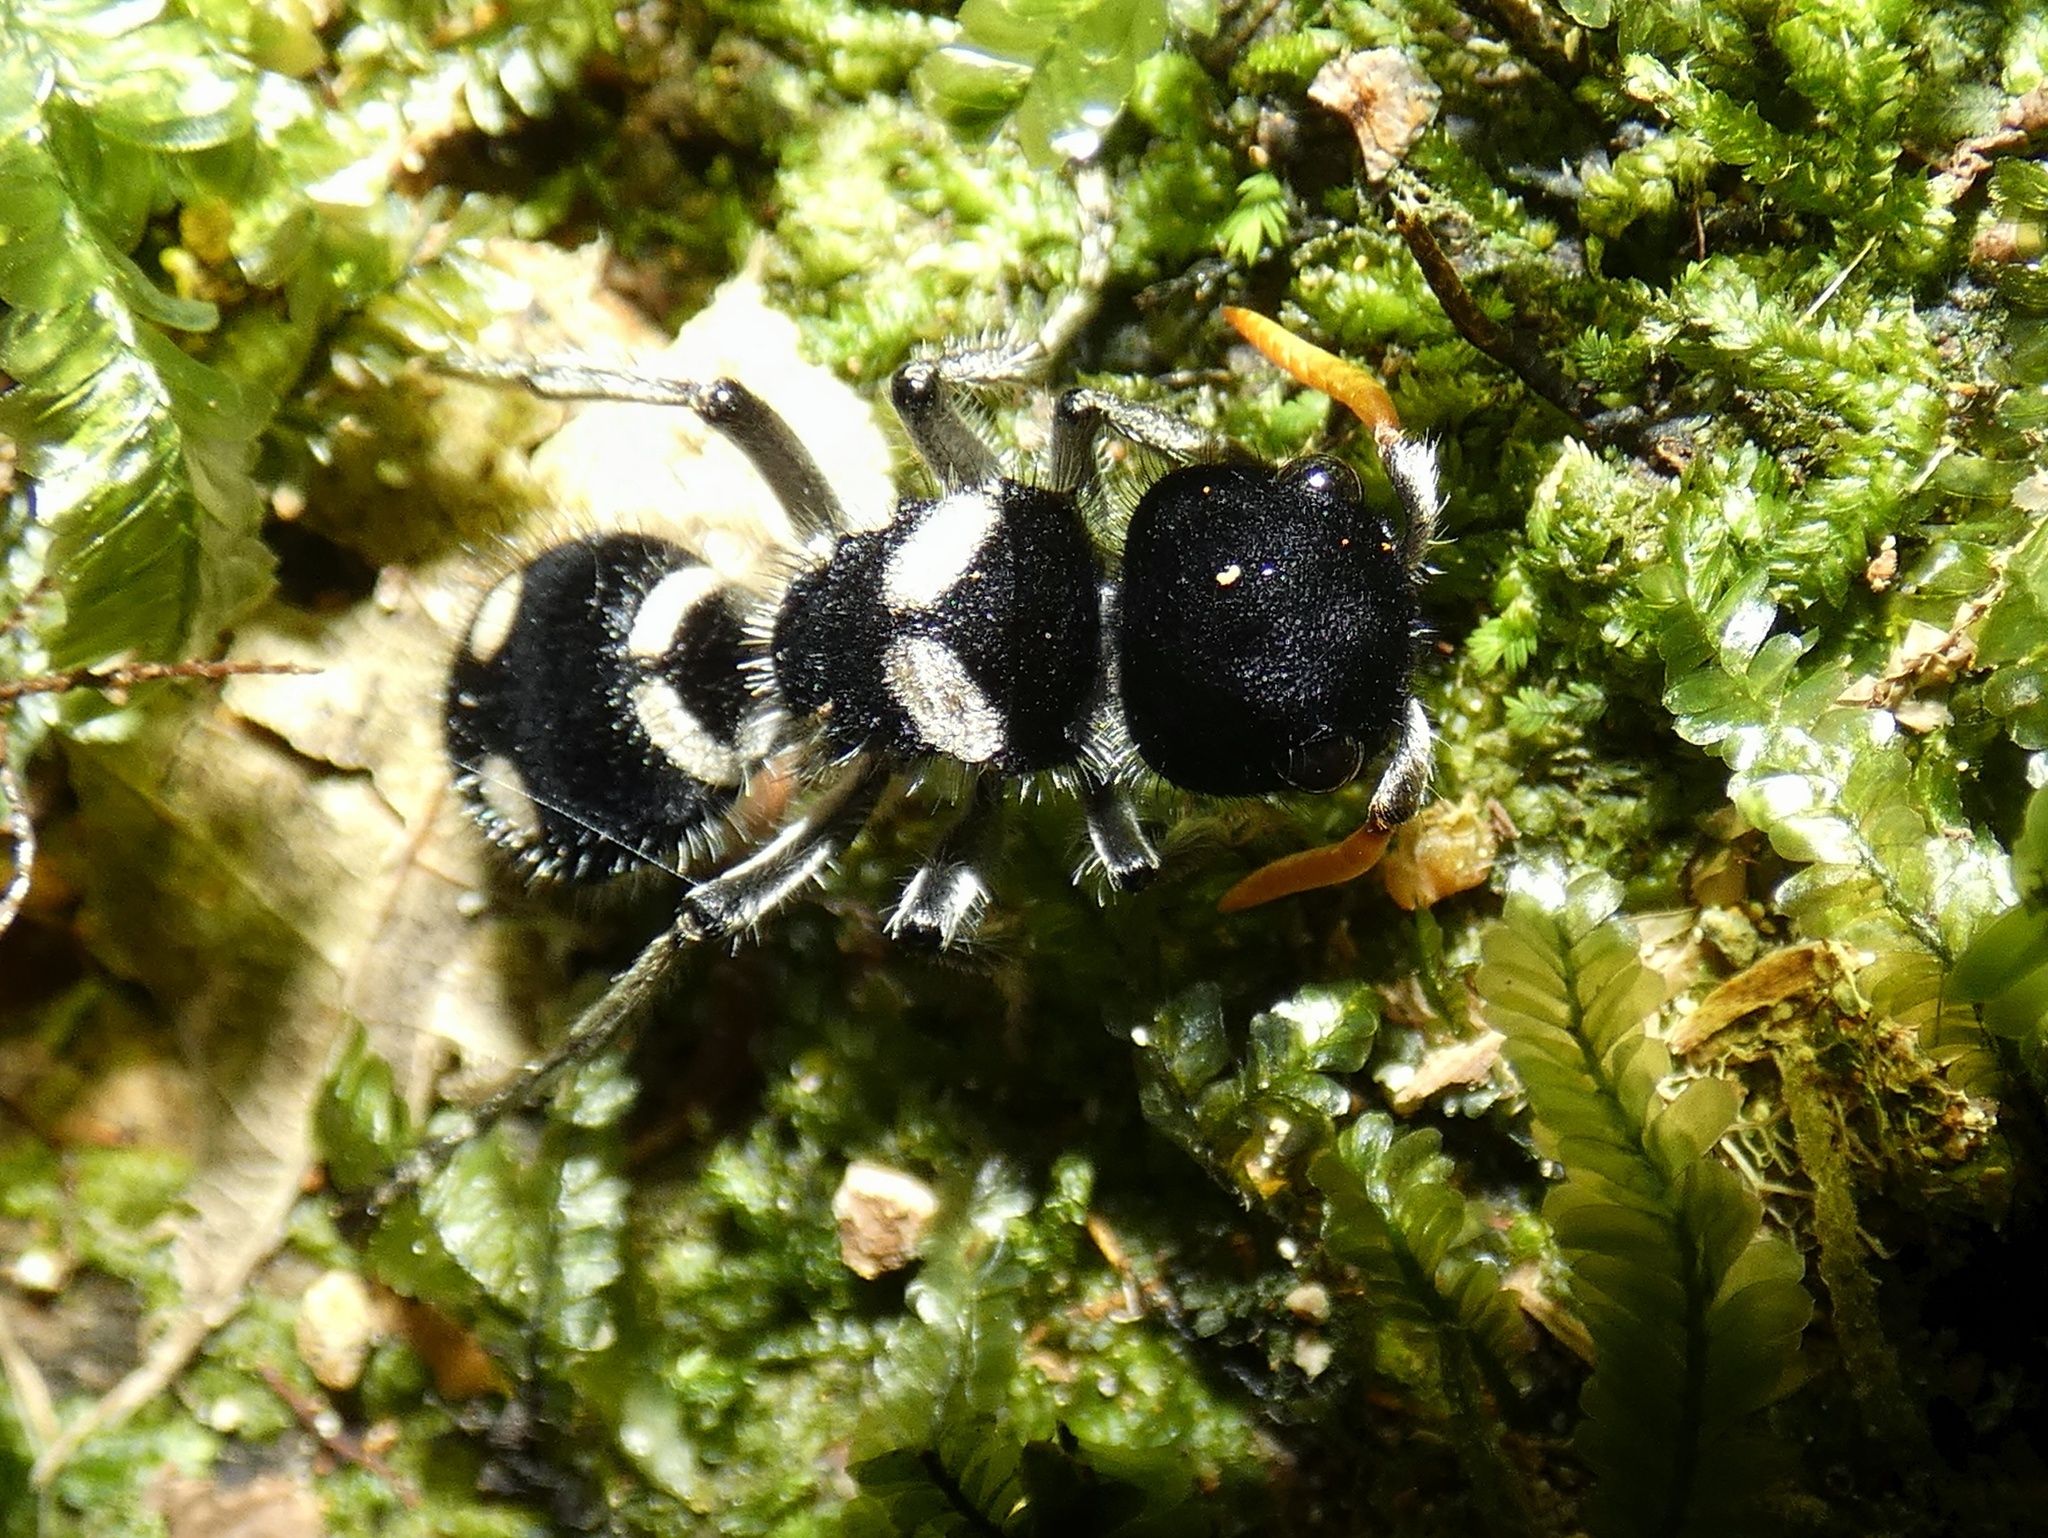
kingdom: Animalia
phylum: Arthropoda
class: Insecta
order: Hymenoptera
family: Mutillidae
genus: Hoplomutilla
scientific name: Hoplomutilla
